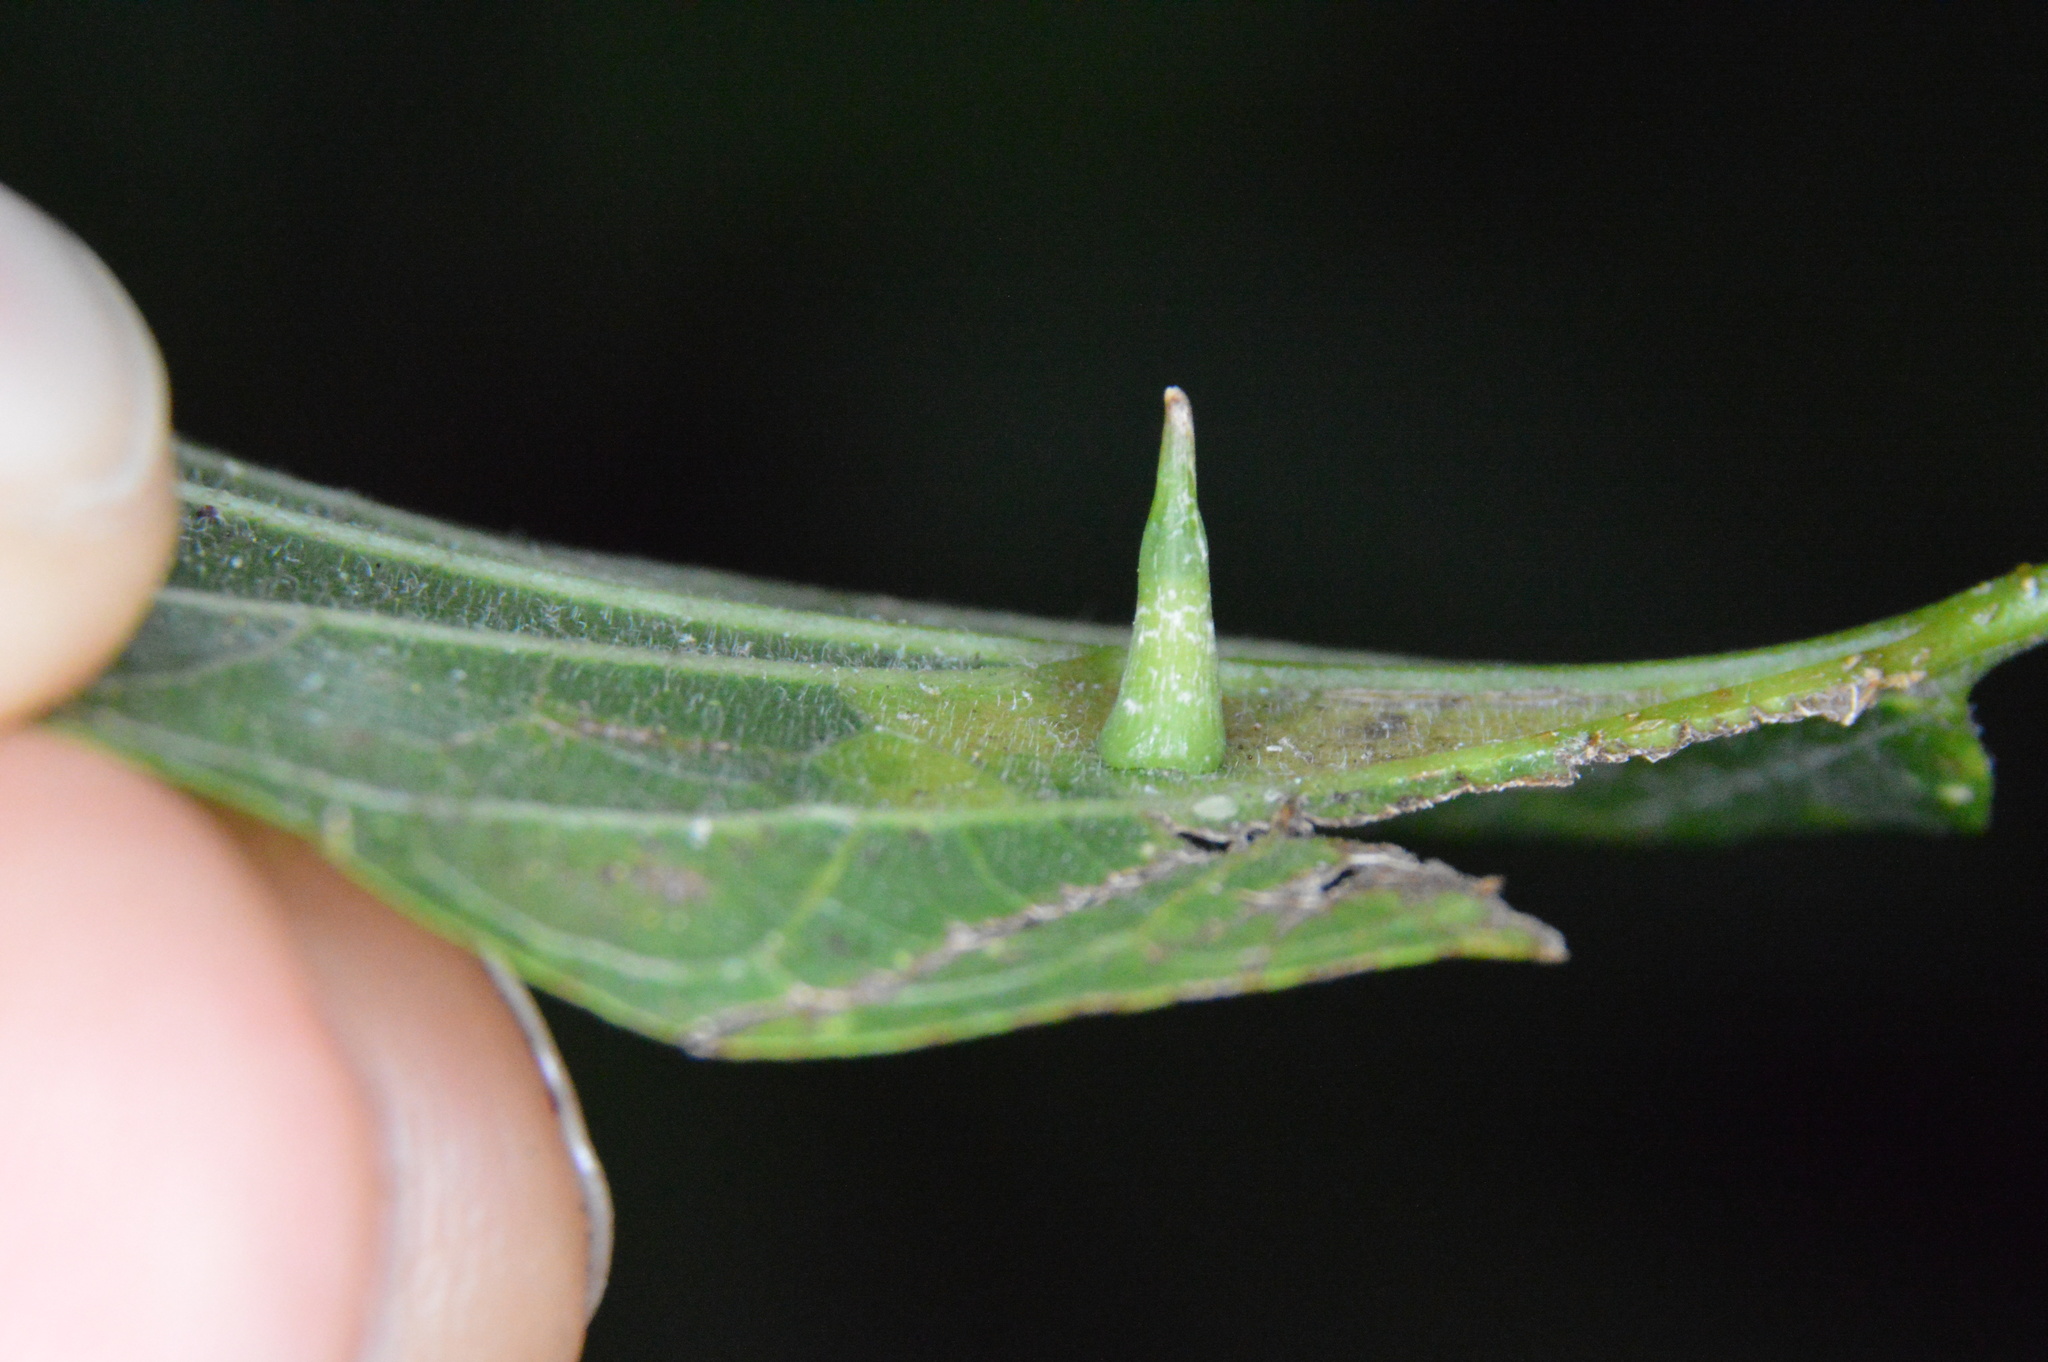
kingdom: Animalia
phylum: Arthropoda
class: Insecta
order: Diptera
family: Cecidomyiidae
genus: Celticecis
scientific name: Celticecis subulata
